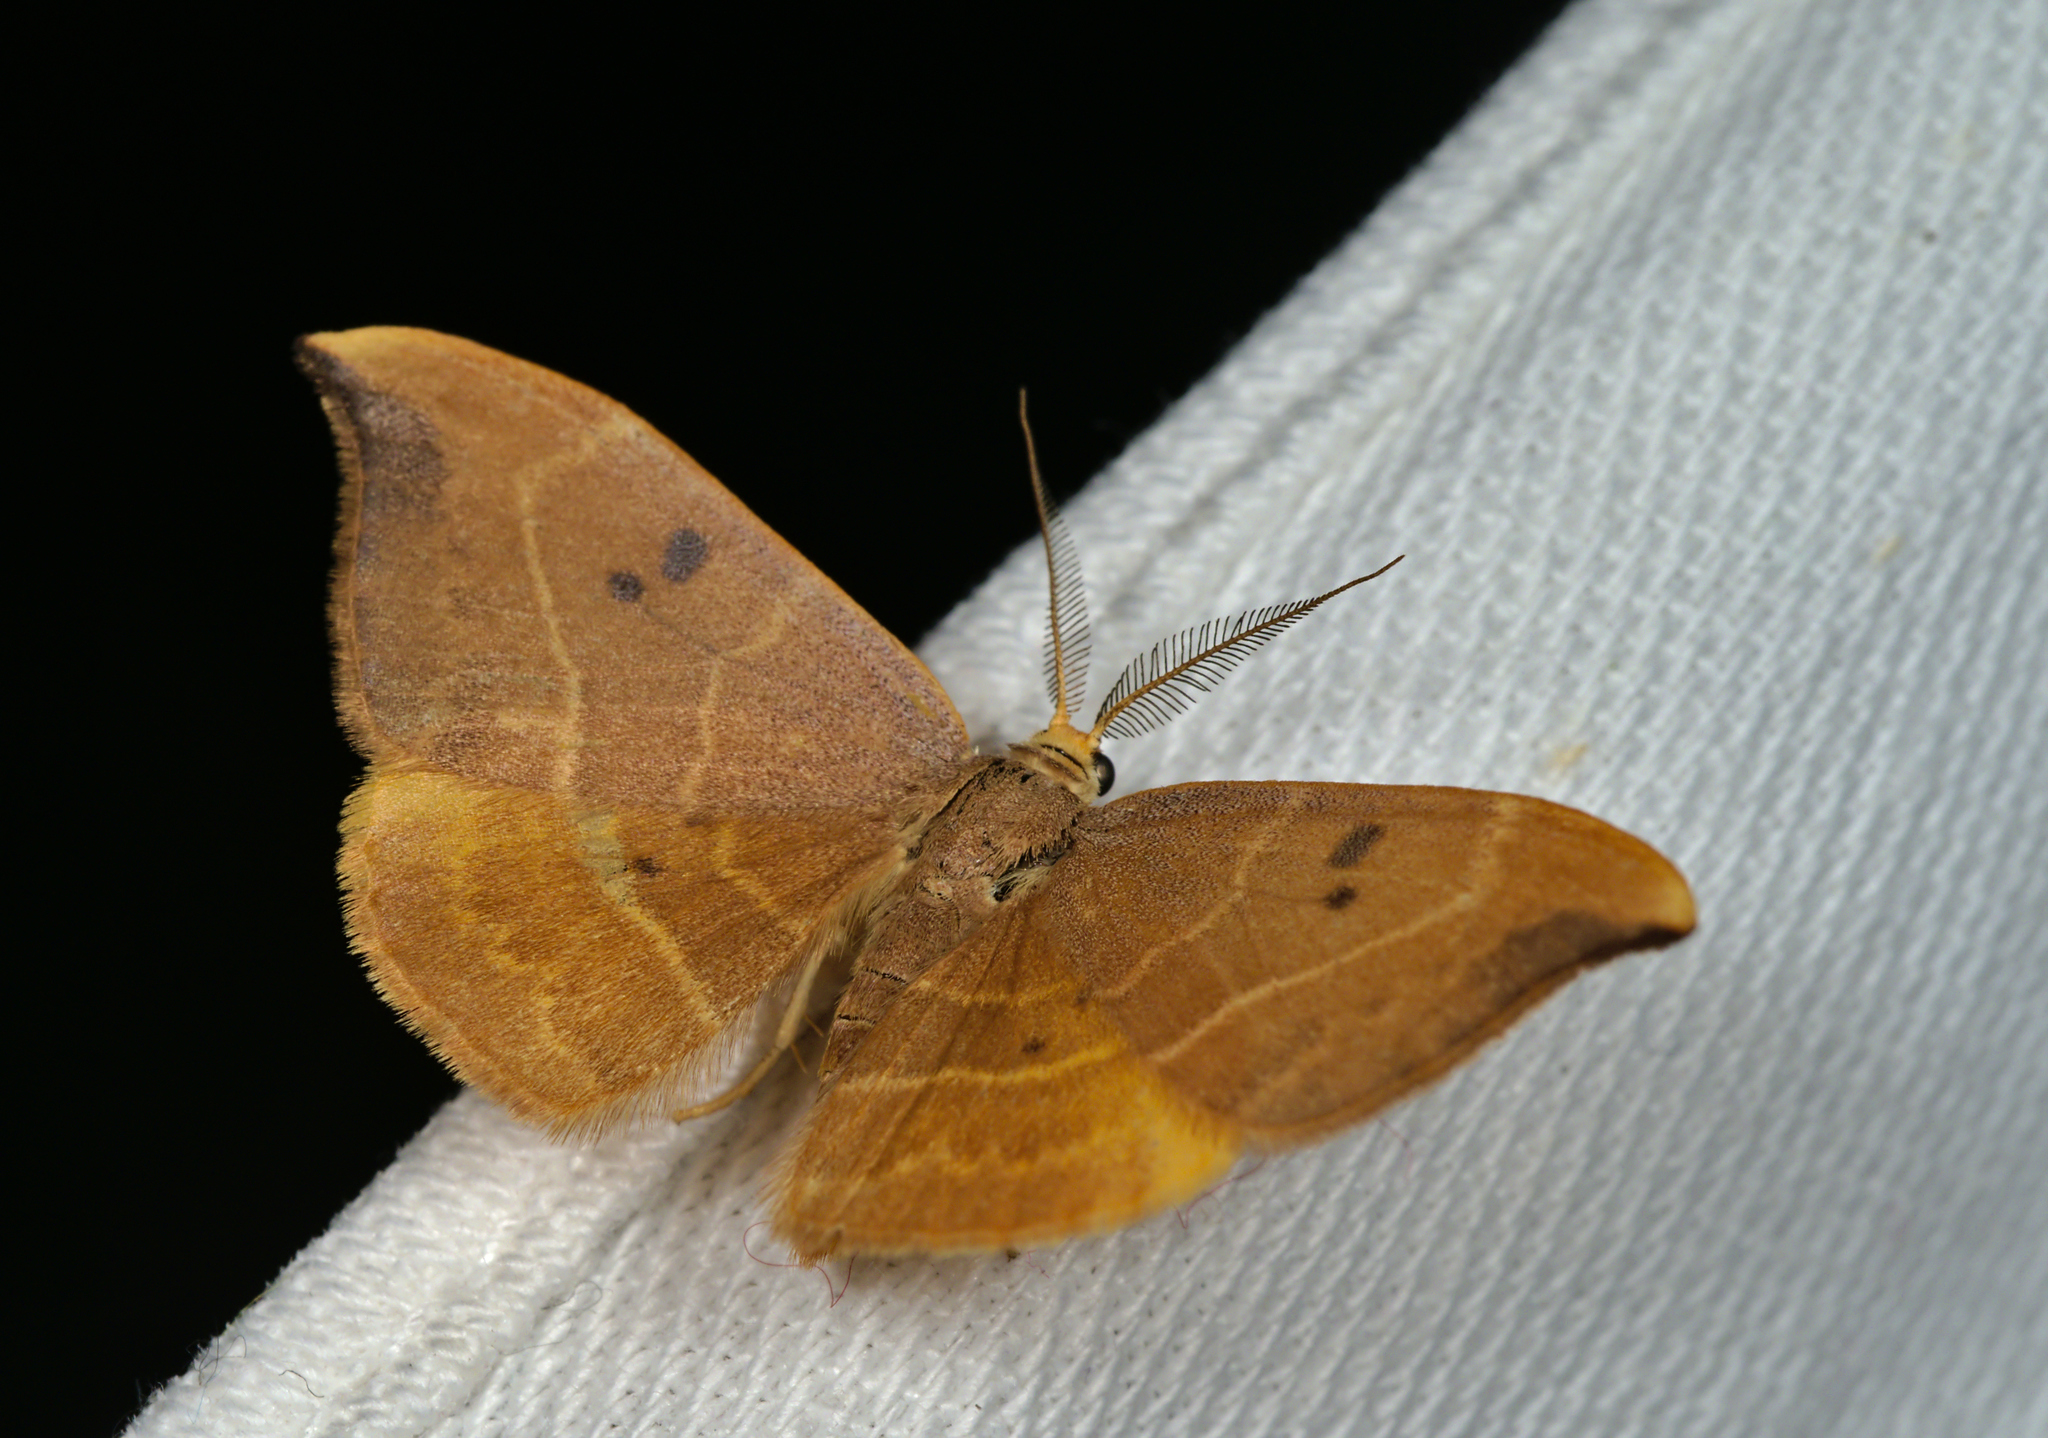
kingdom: Animalia
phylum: Arthropoda
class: Insecta
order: Lepidoptera
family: Drepanidae
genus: Watsonalla
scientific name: Watsonalla binaria
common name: Oak hook-tip
